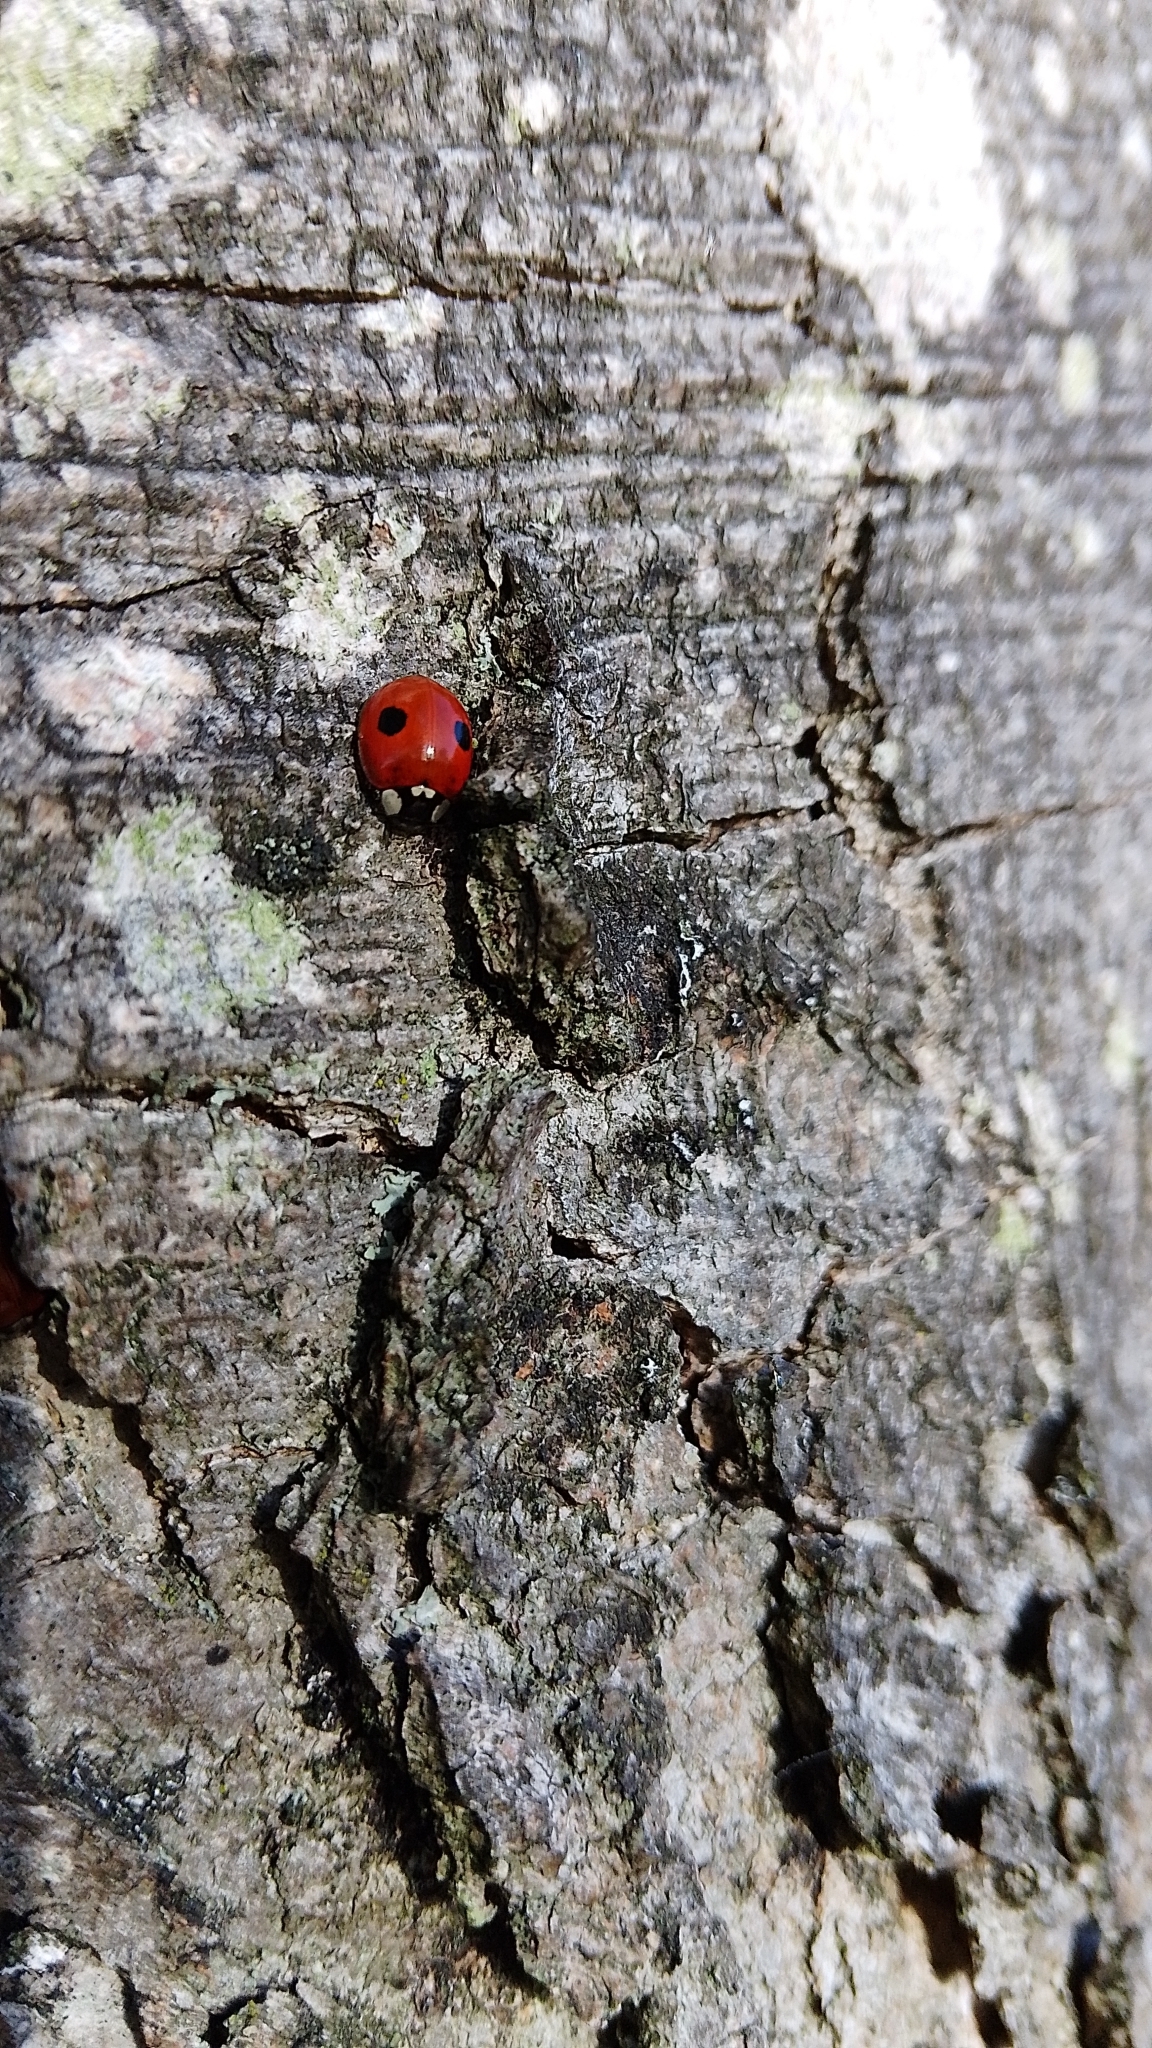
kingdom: Animalia
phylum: Arthropoda
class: Insecta
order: Coleoptera
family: Coccinellidae
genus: Adalia
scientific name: Adalia bipunctata
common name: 2-spot ladybird
